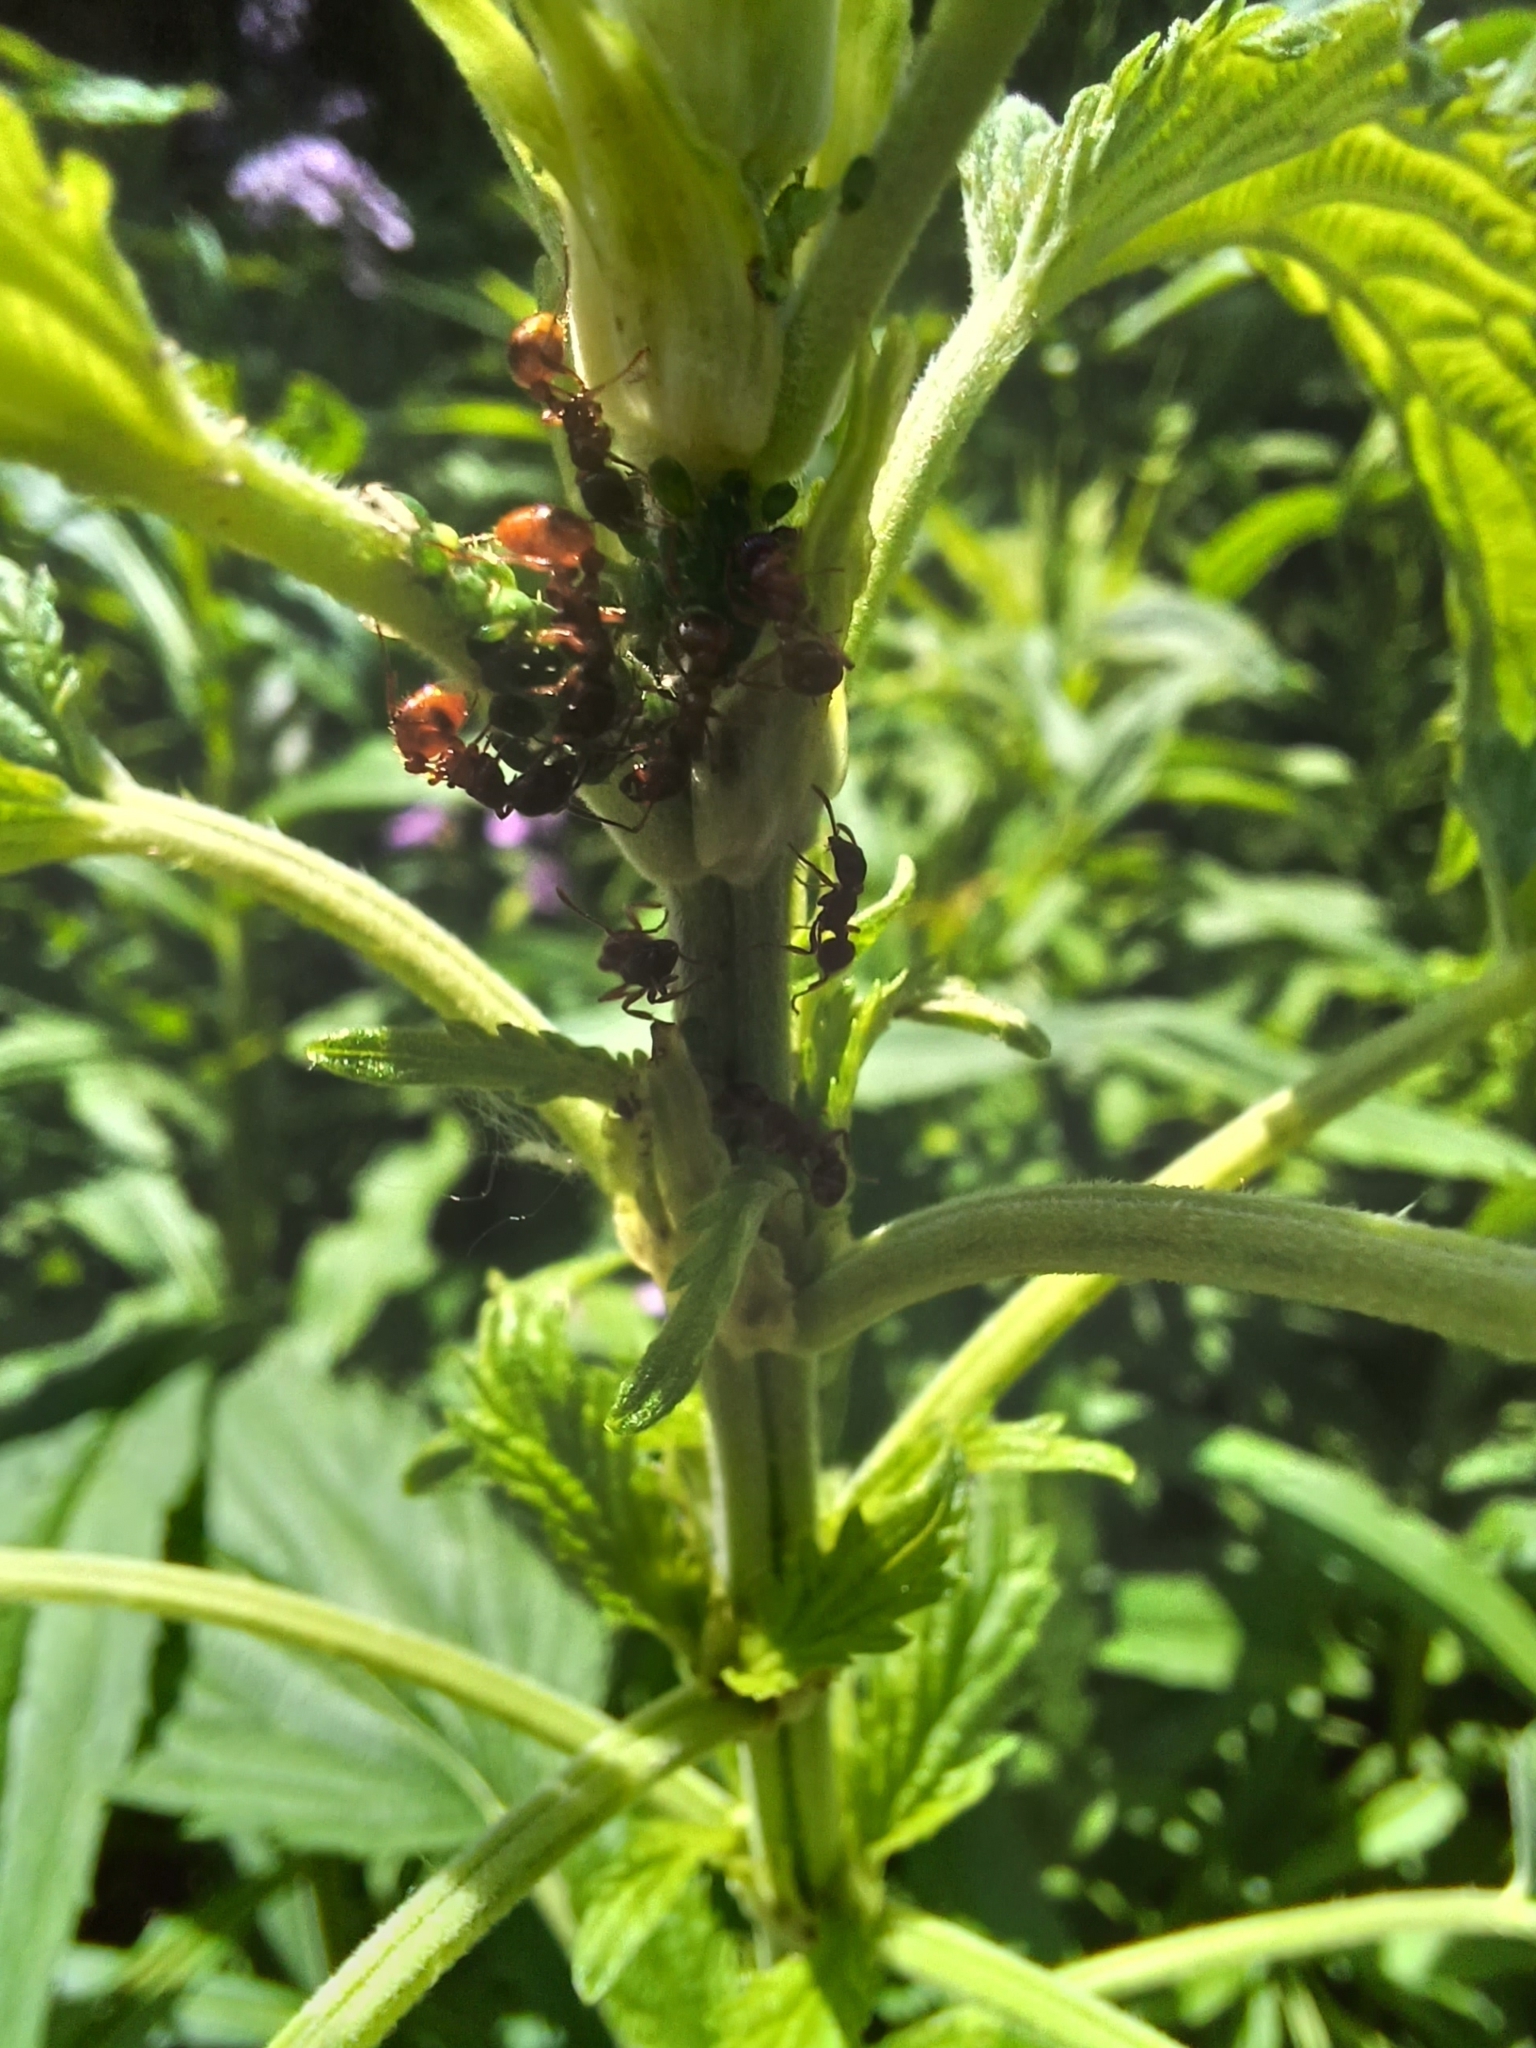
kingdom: Animalia
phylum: Arthropoda
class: Insecta
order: Hymenoptera
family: Formicidae
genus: Myrmica
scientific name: Myrmica rubra
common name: European fire ant
